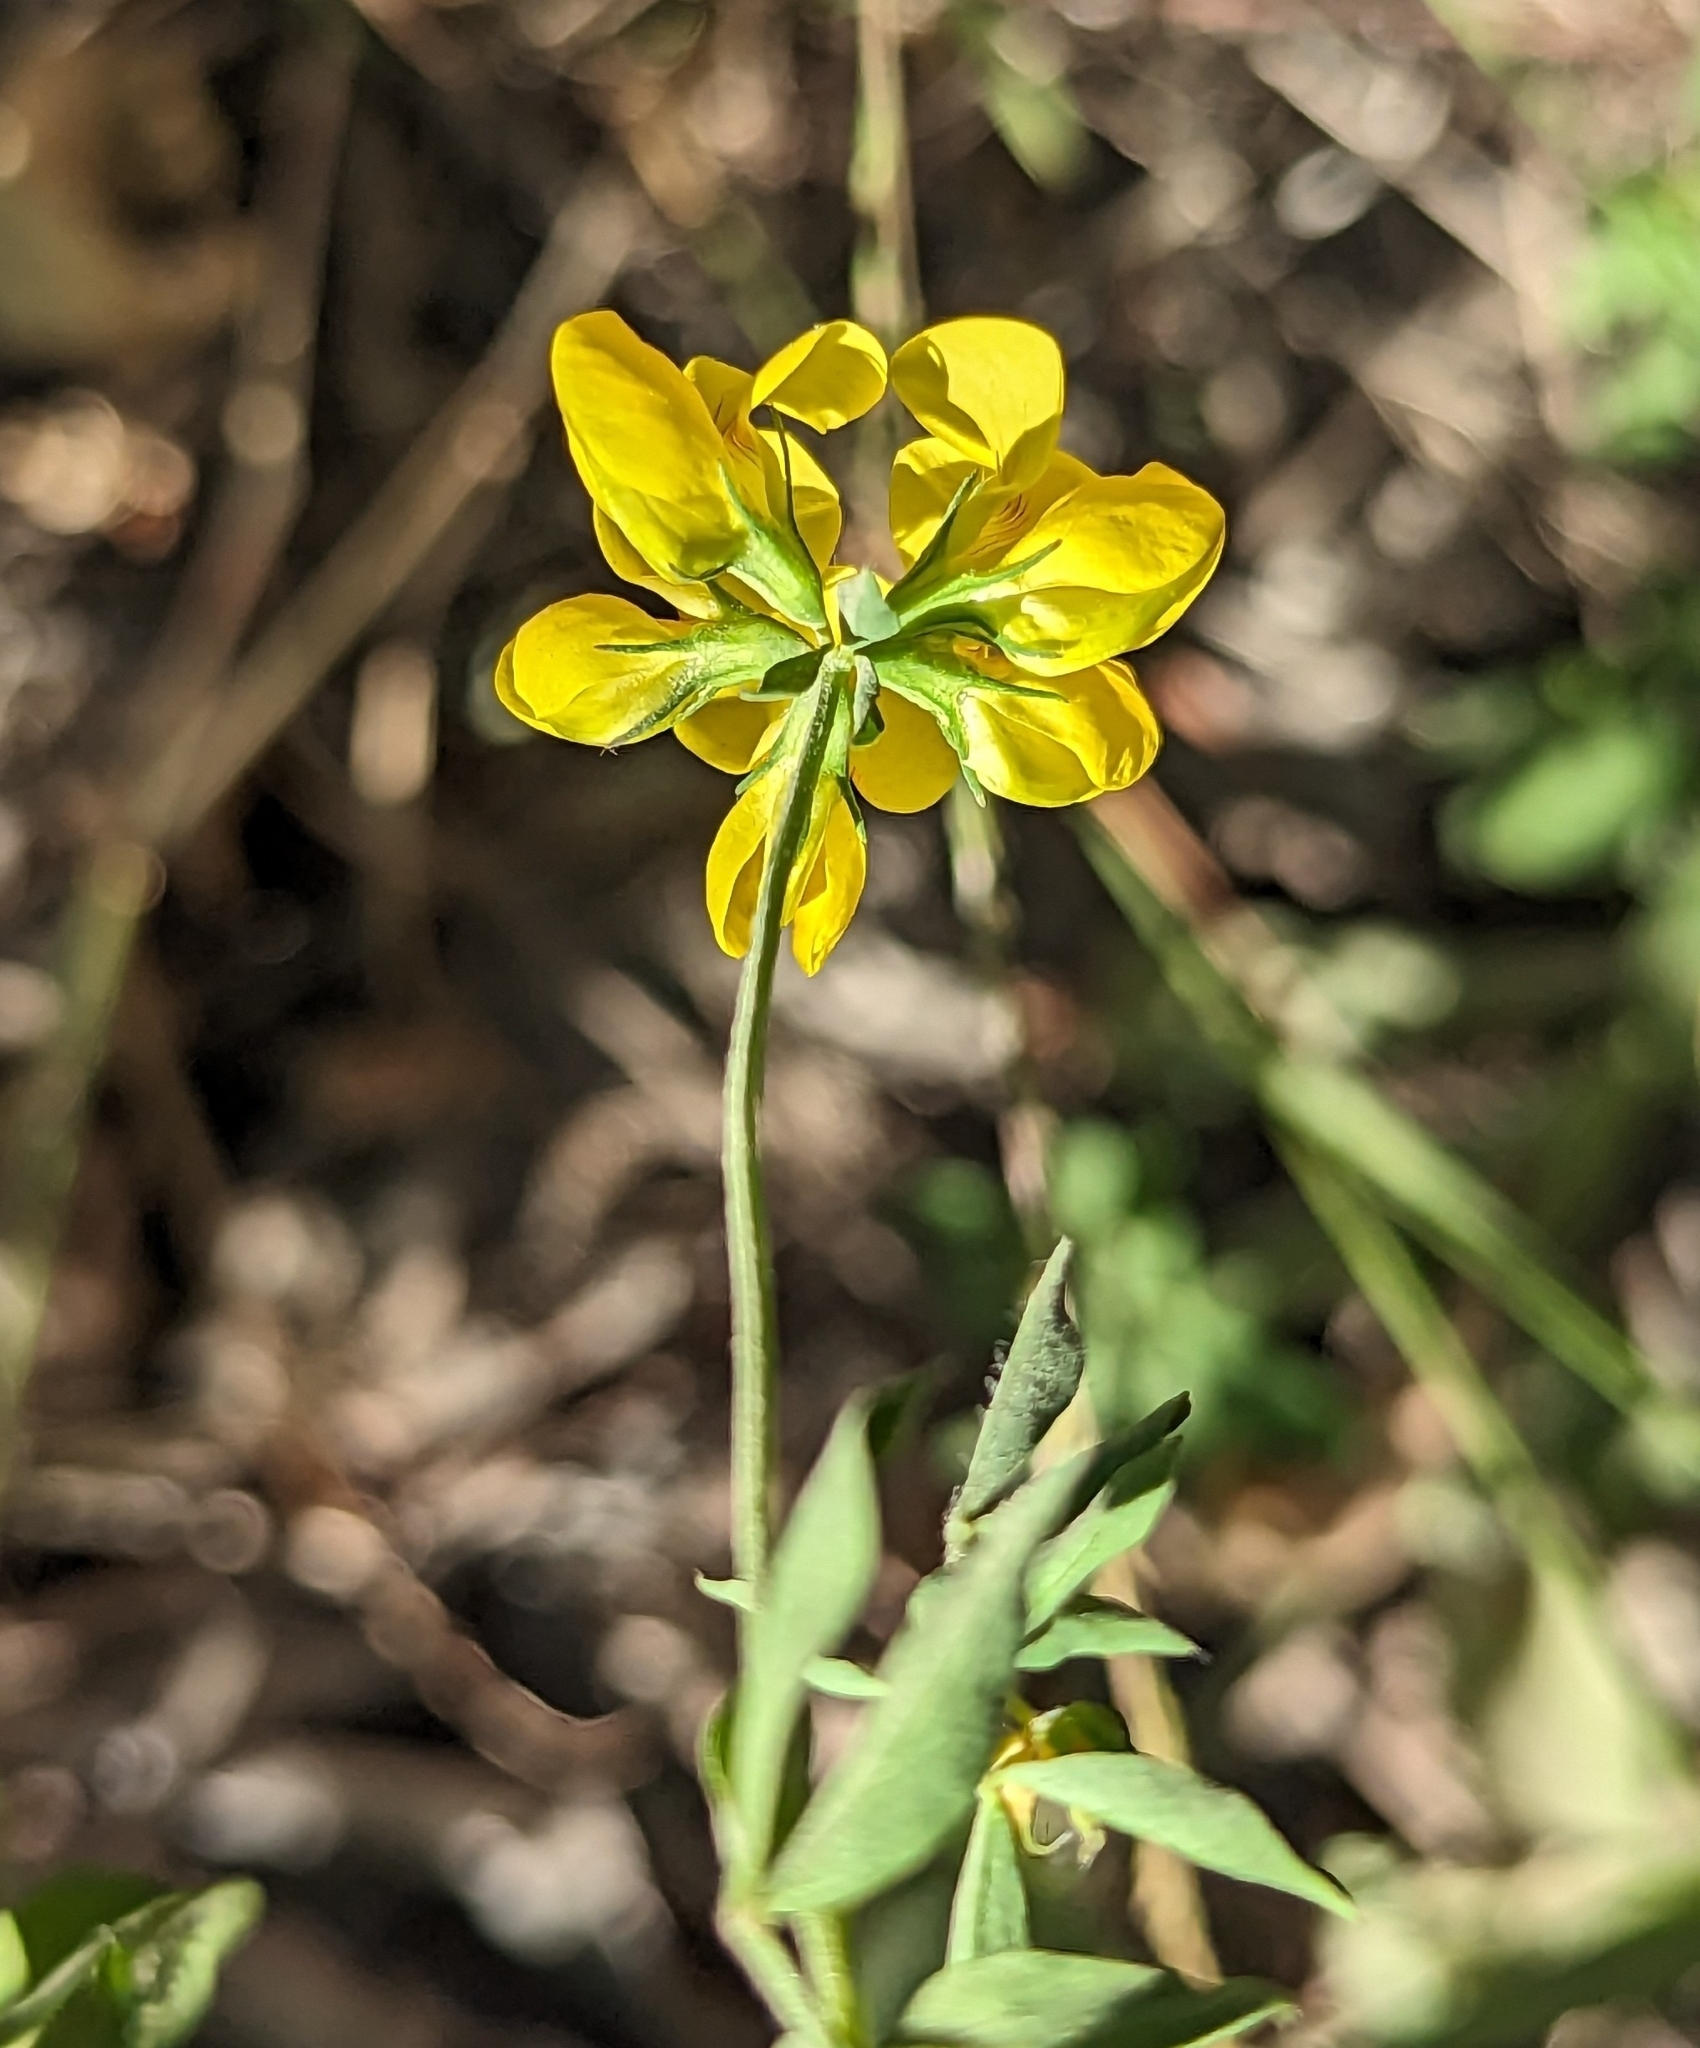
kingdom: Plantae
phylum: Tracheophyta
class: Magnoliopsida
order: Fabales
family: Fabaceae
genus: Lotus
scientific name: Lotus corniculatus
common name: Common bird's-foot-trefoil
